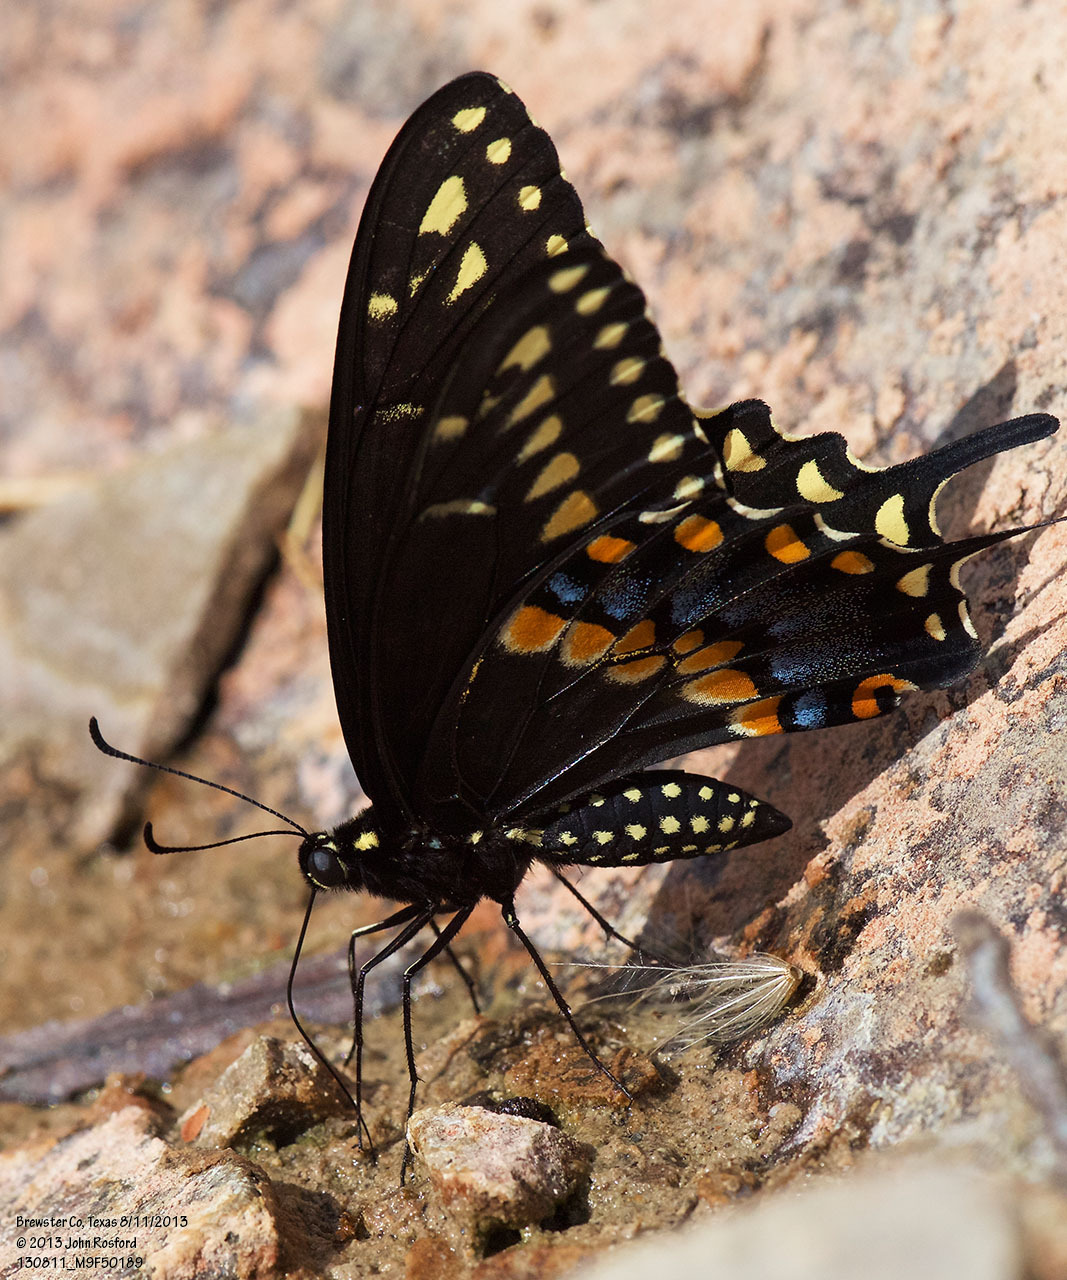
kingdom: Animalia
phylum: Arthropoda
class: Insecta
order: Lepidoptera
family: Papilionidae
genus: Papilio
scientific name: Papilio polyxenes
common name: Black swallowtail
